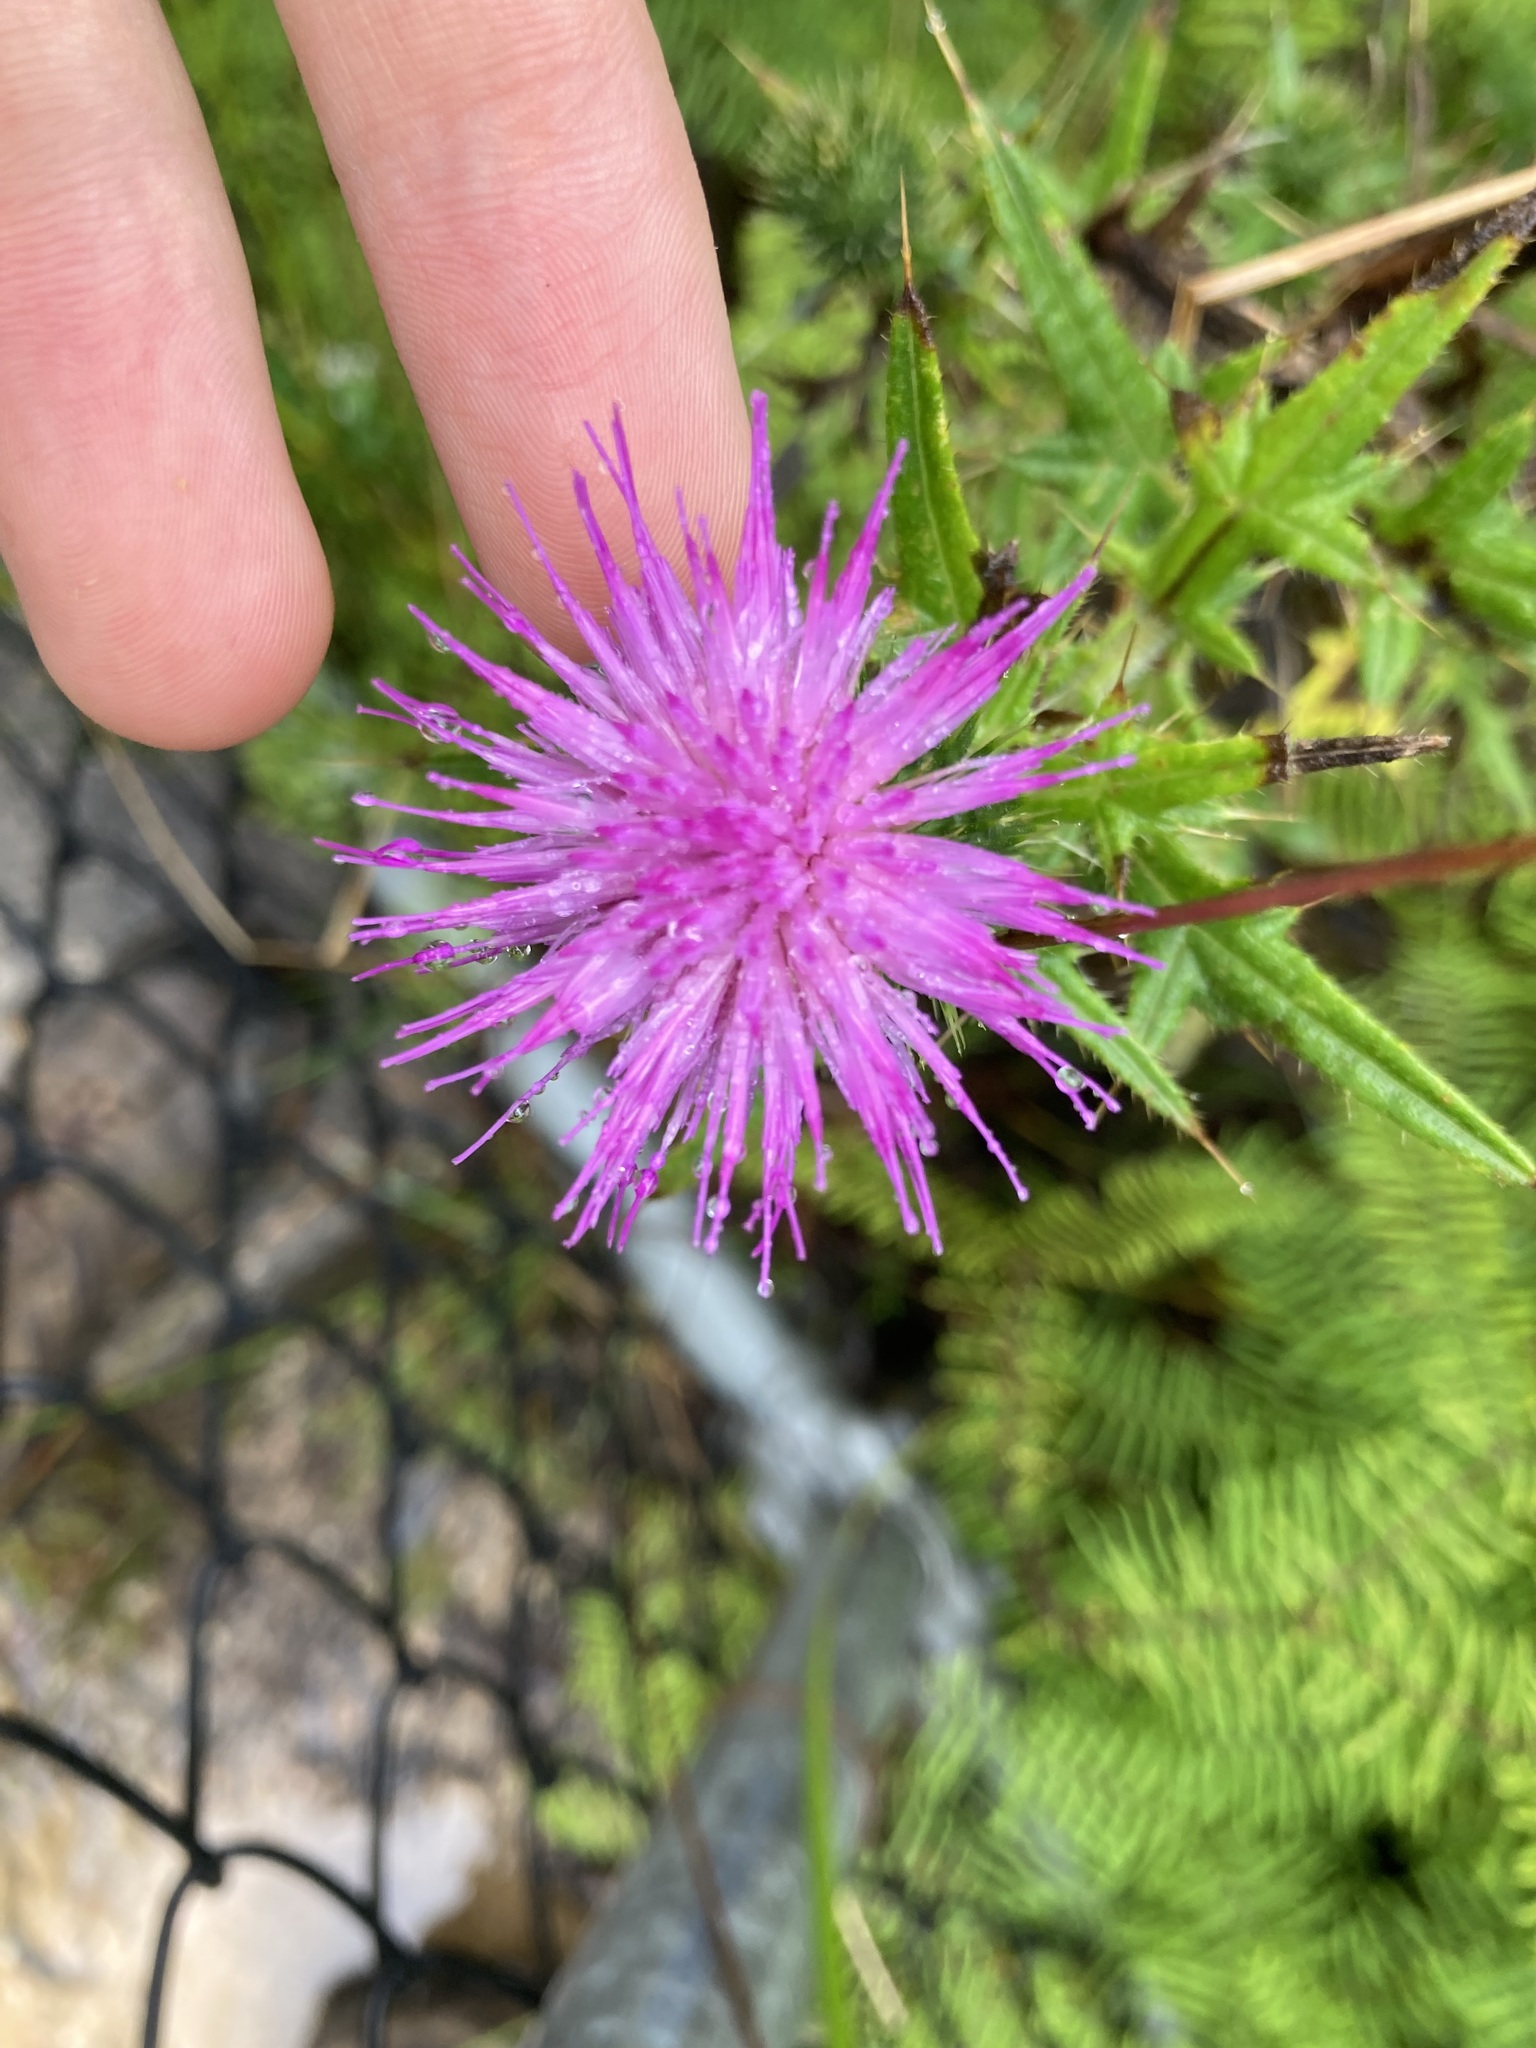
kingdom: Plantae
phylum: Tracheophyta
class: Magnoliopsida
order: Asterales
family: Asteraceae
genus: Cirsium
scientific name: Cirsium vulgare
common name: Bull thistle
